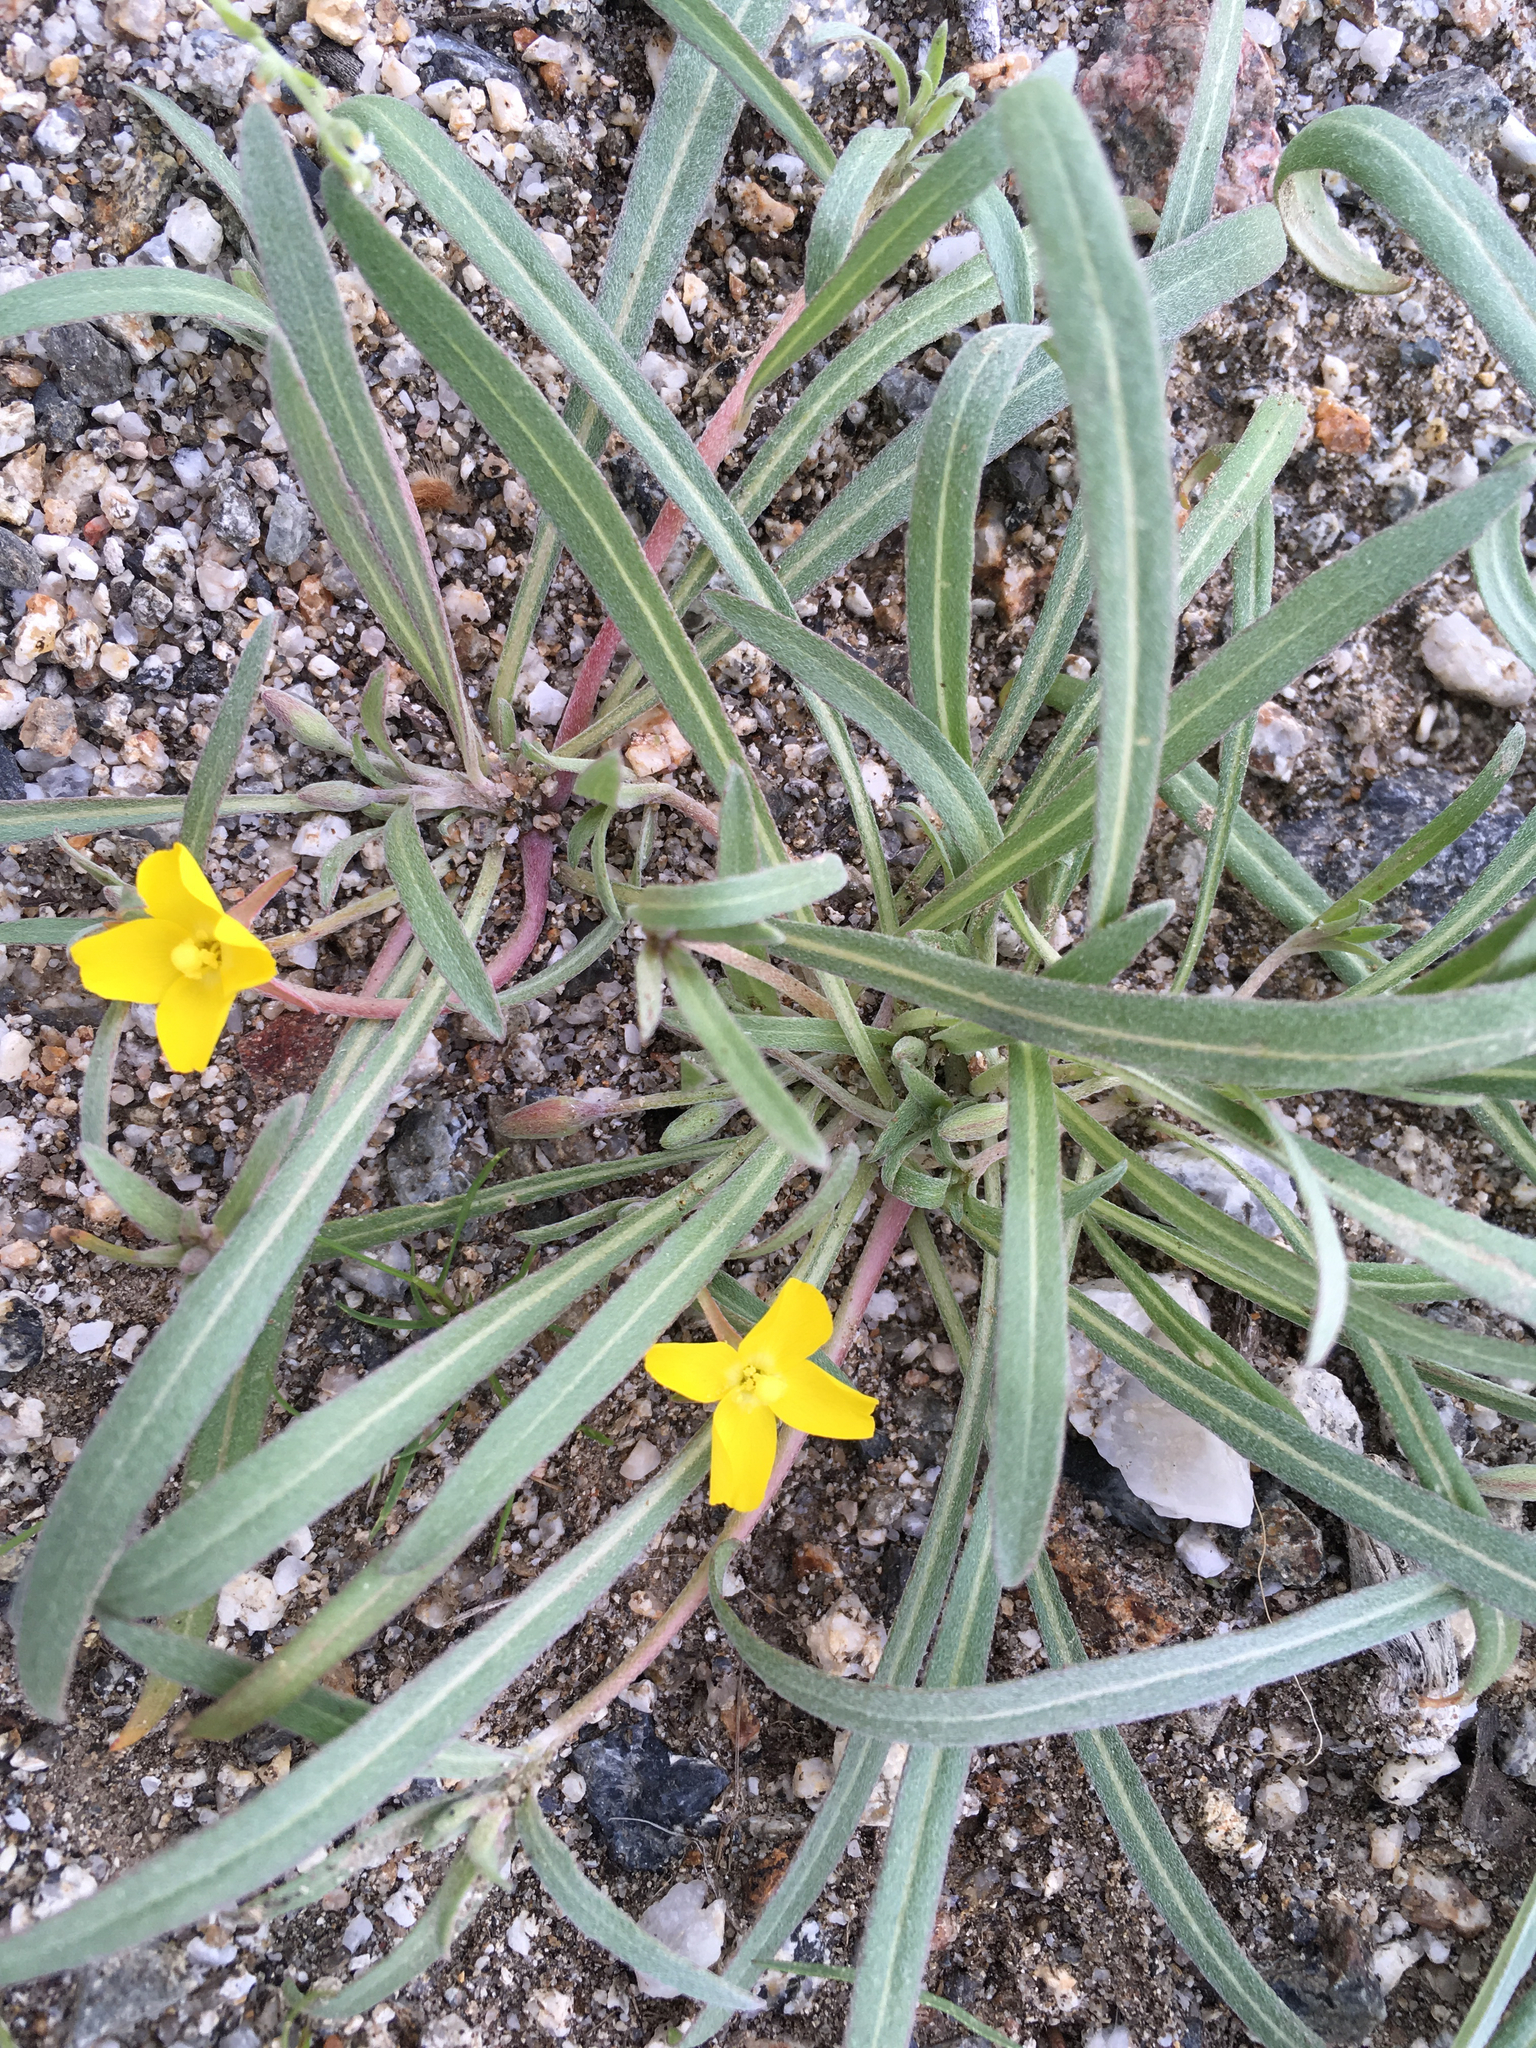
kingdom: Plantae
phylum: Tracheophyta
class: Magnoliopsida
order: Myrtales
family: Onagraceae
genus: Camissoniopsis
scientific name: Camissoniopsis pallida
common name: Paleyellow suncup
